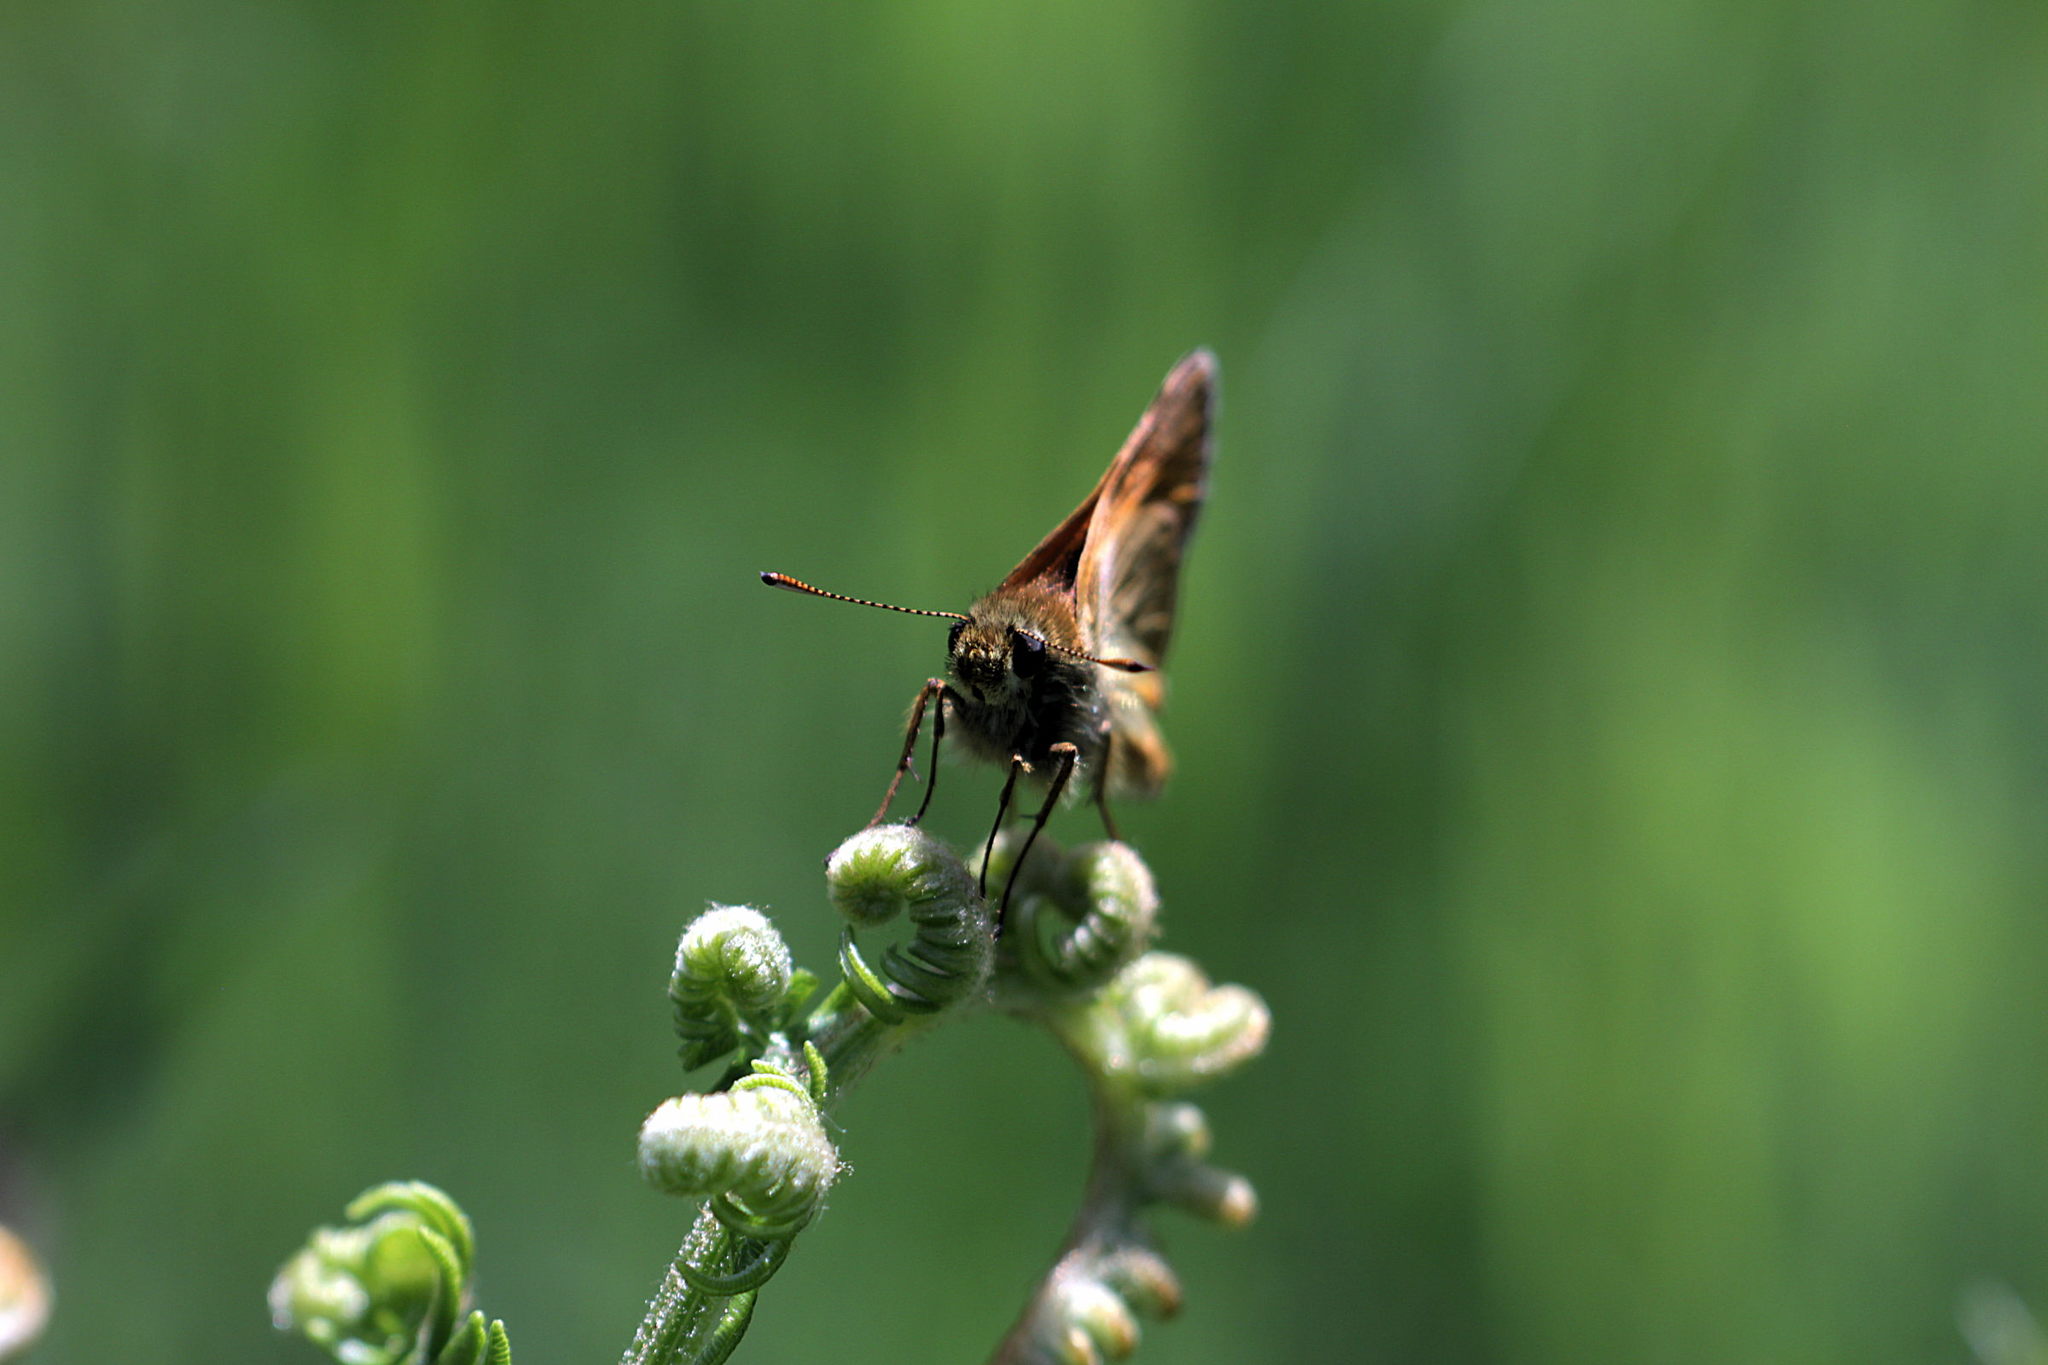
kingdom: Animalia
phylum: Arthropoda
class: Insecta
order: Lepidoptera
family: Hesperiidae
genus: Ochlodes
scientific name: Ochlodes venata
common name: Large skipper
